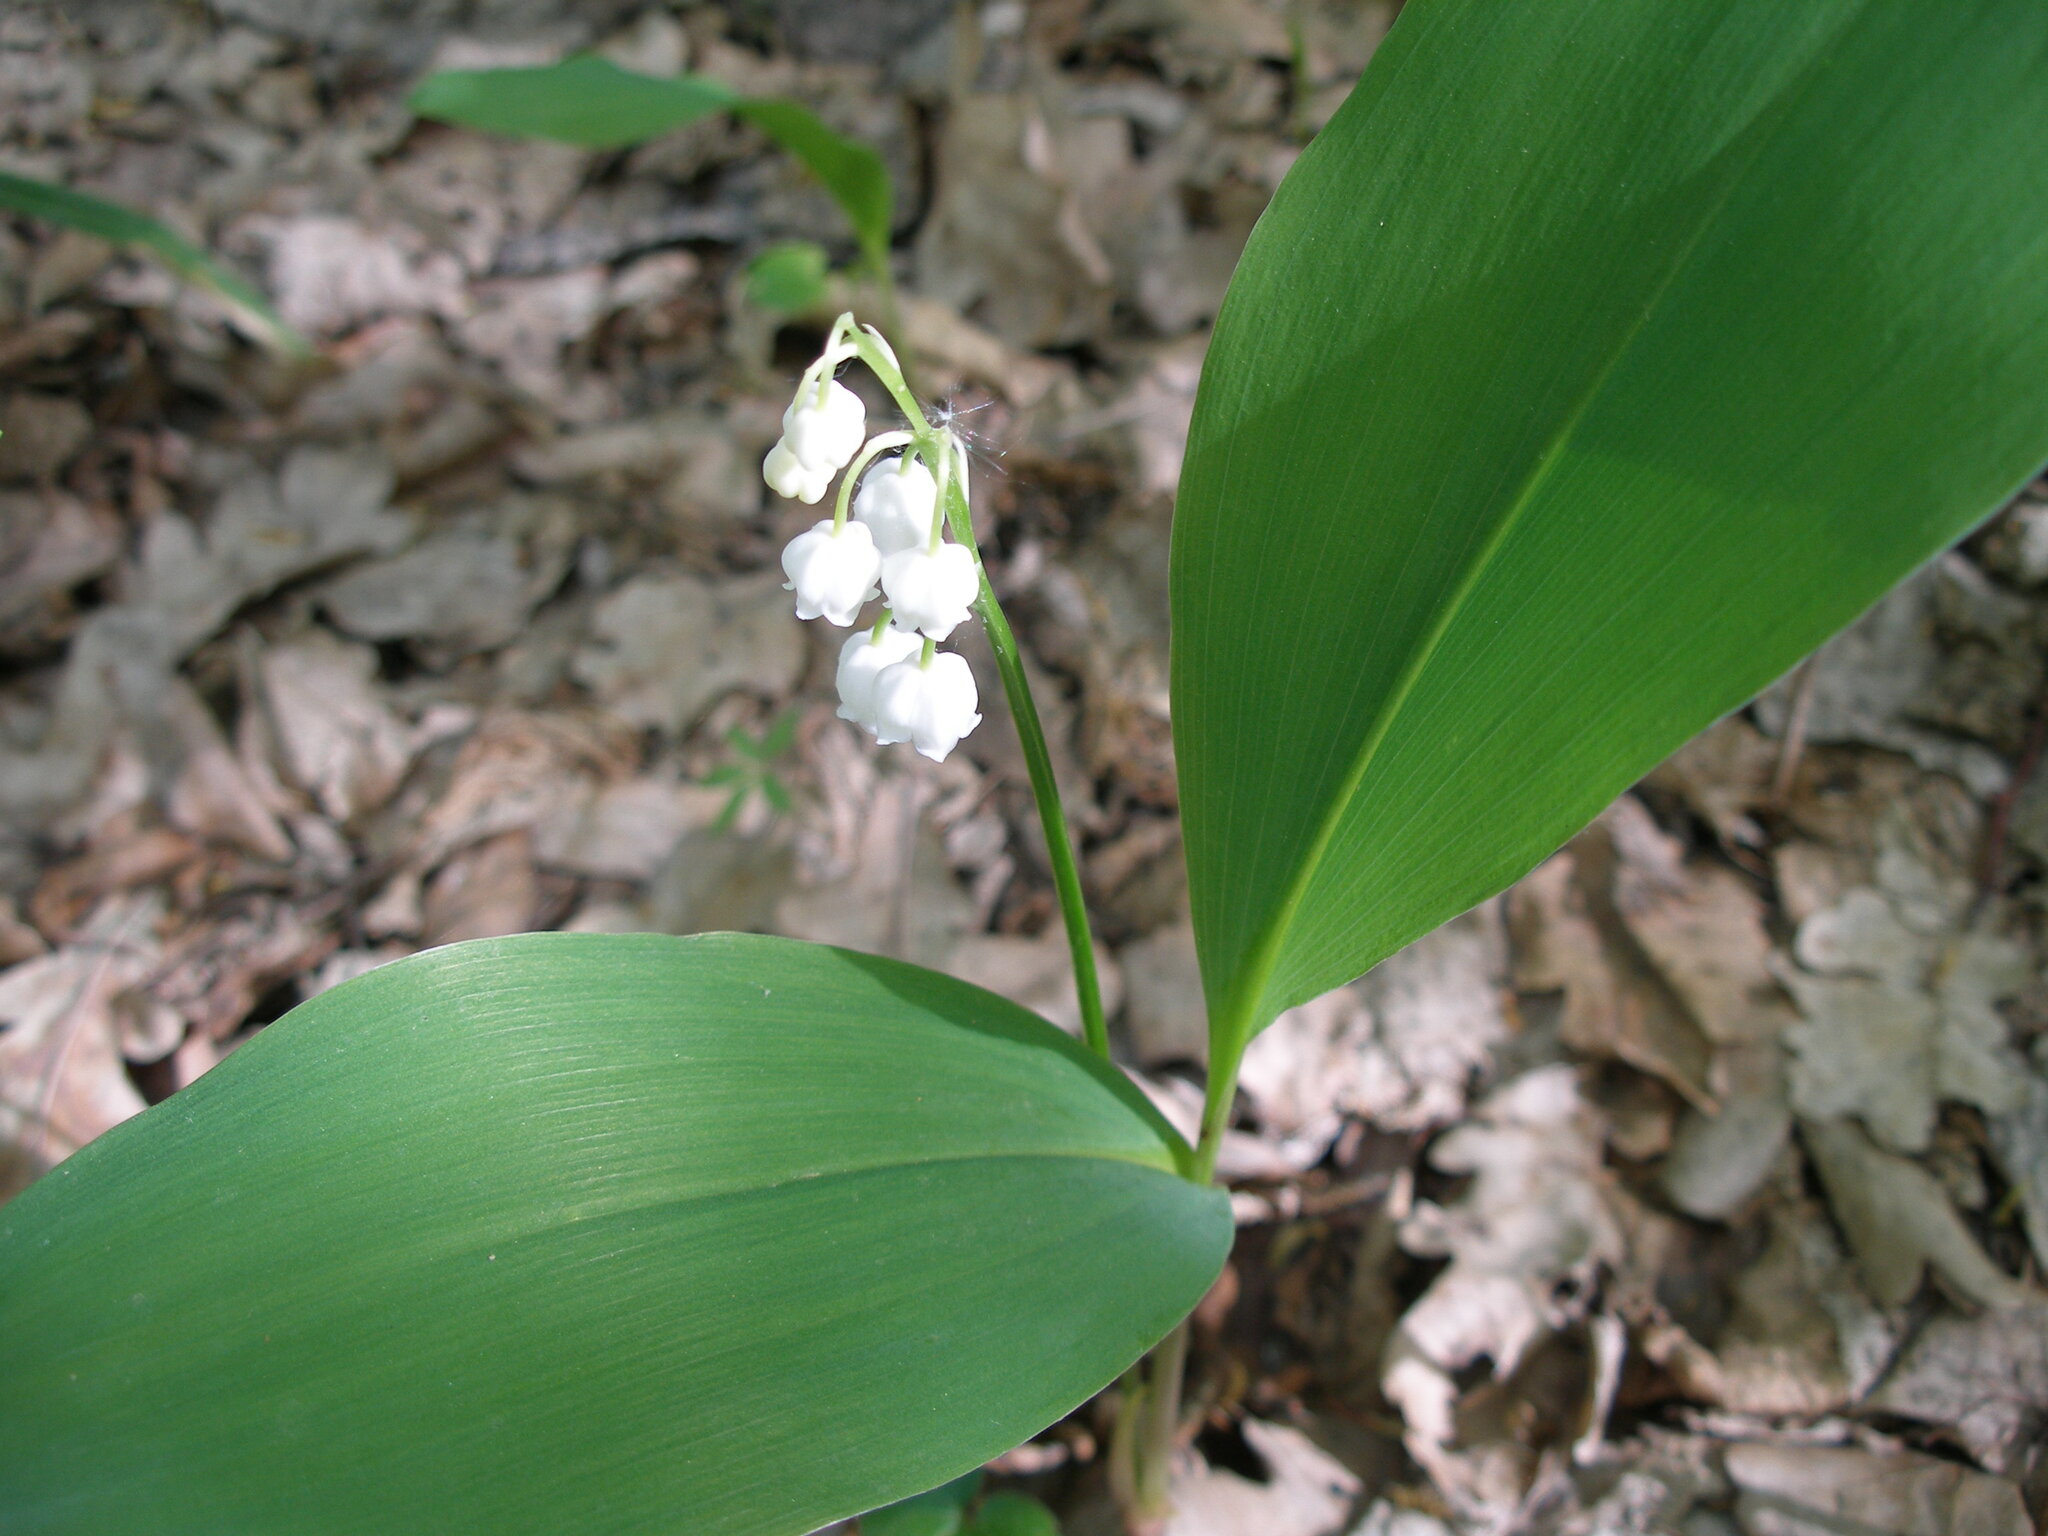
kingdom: Plantae
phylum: Tracheophyta
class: Liliopsida
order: Asparagales
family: Asparagaceae
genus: Convallaria
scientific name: Convallaria majalis
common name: Lily-of-the-valley
